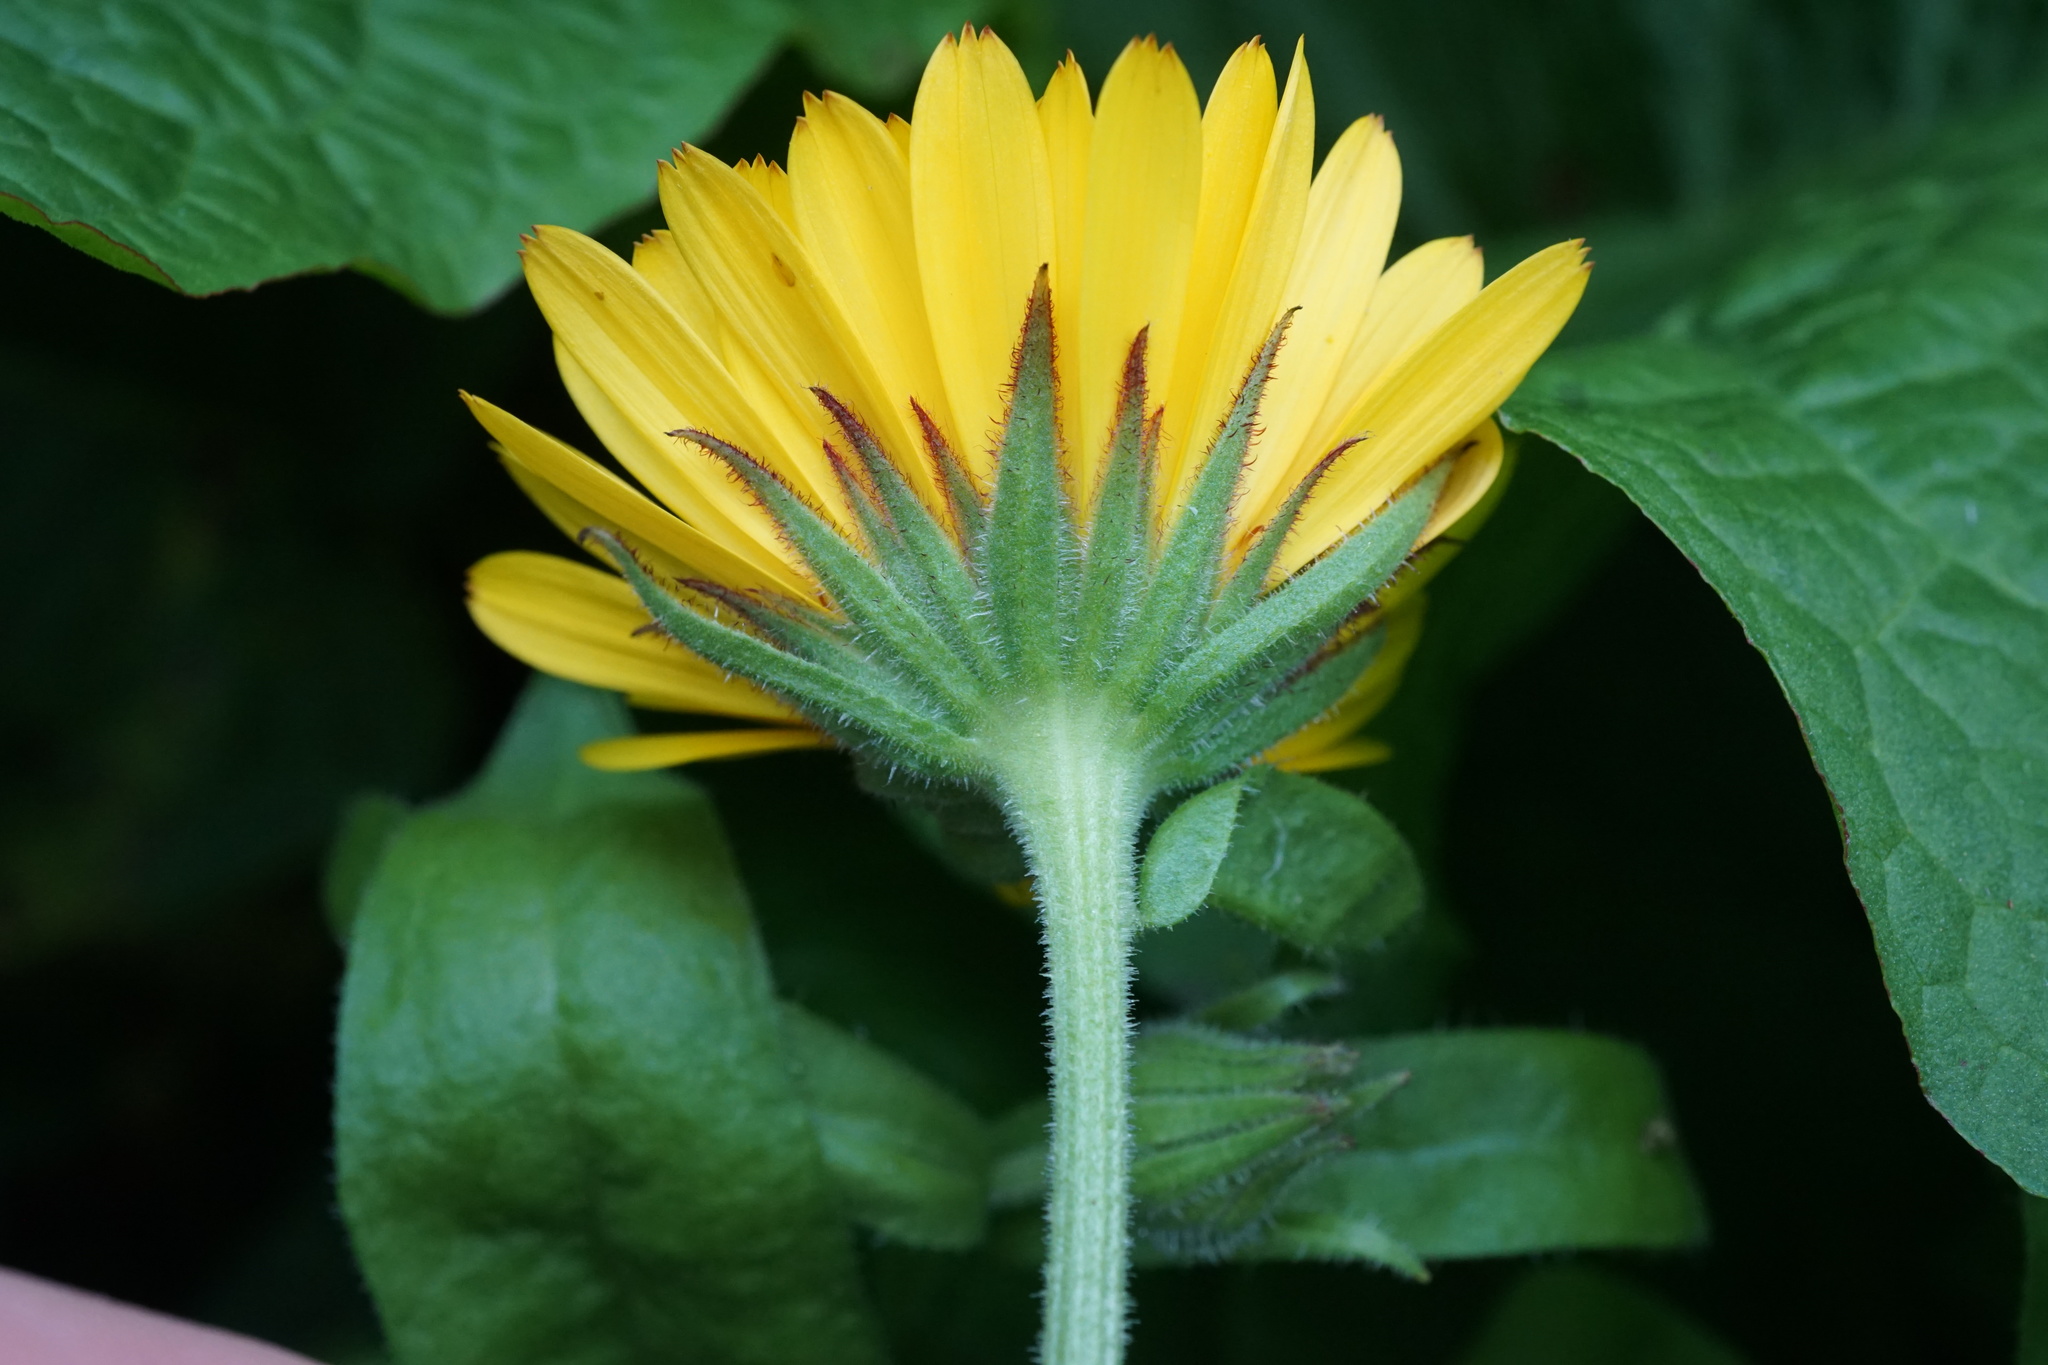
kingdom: Plantae
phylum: Tracheophyta
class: Magnoliopsida
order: Asterales
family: Asteraceae
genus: Calendula
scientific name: Calendula officinalis
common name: Pot marigold
